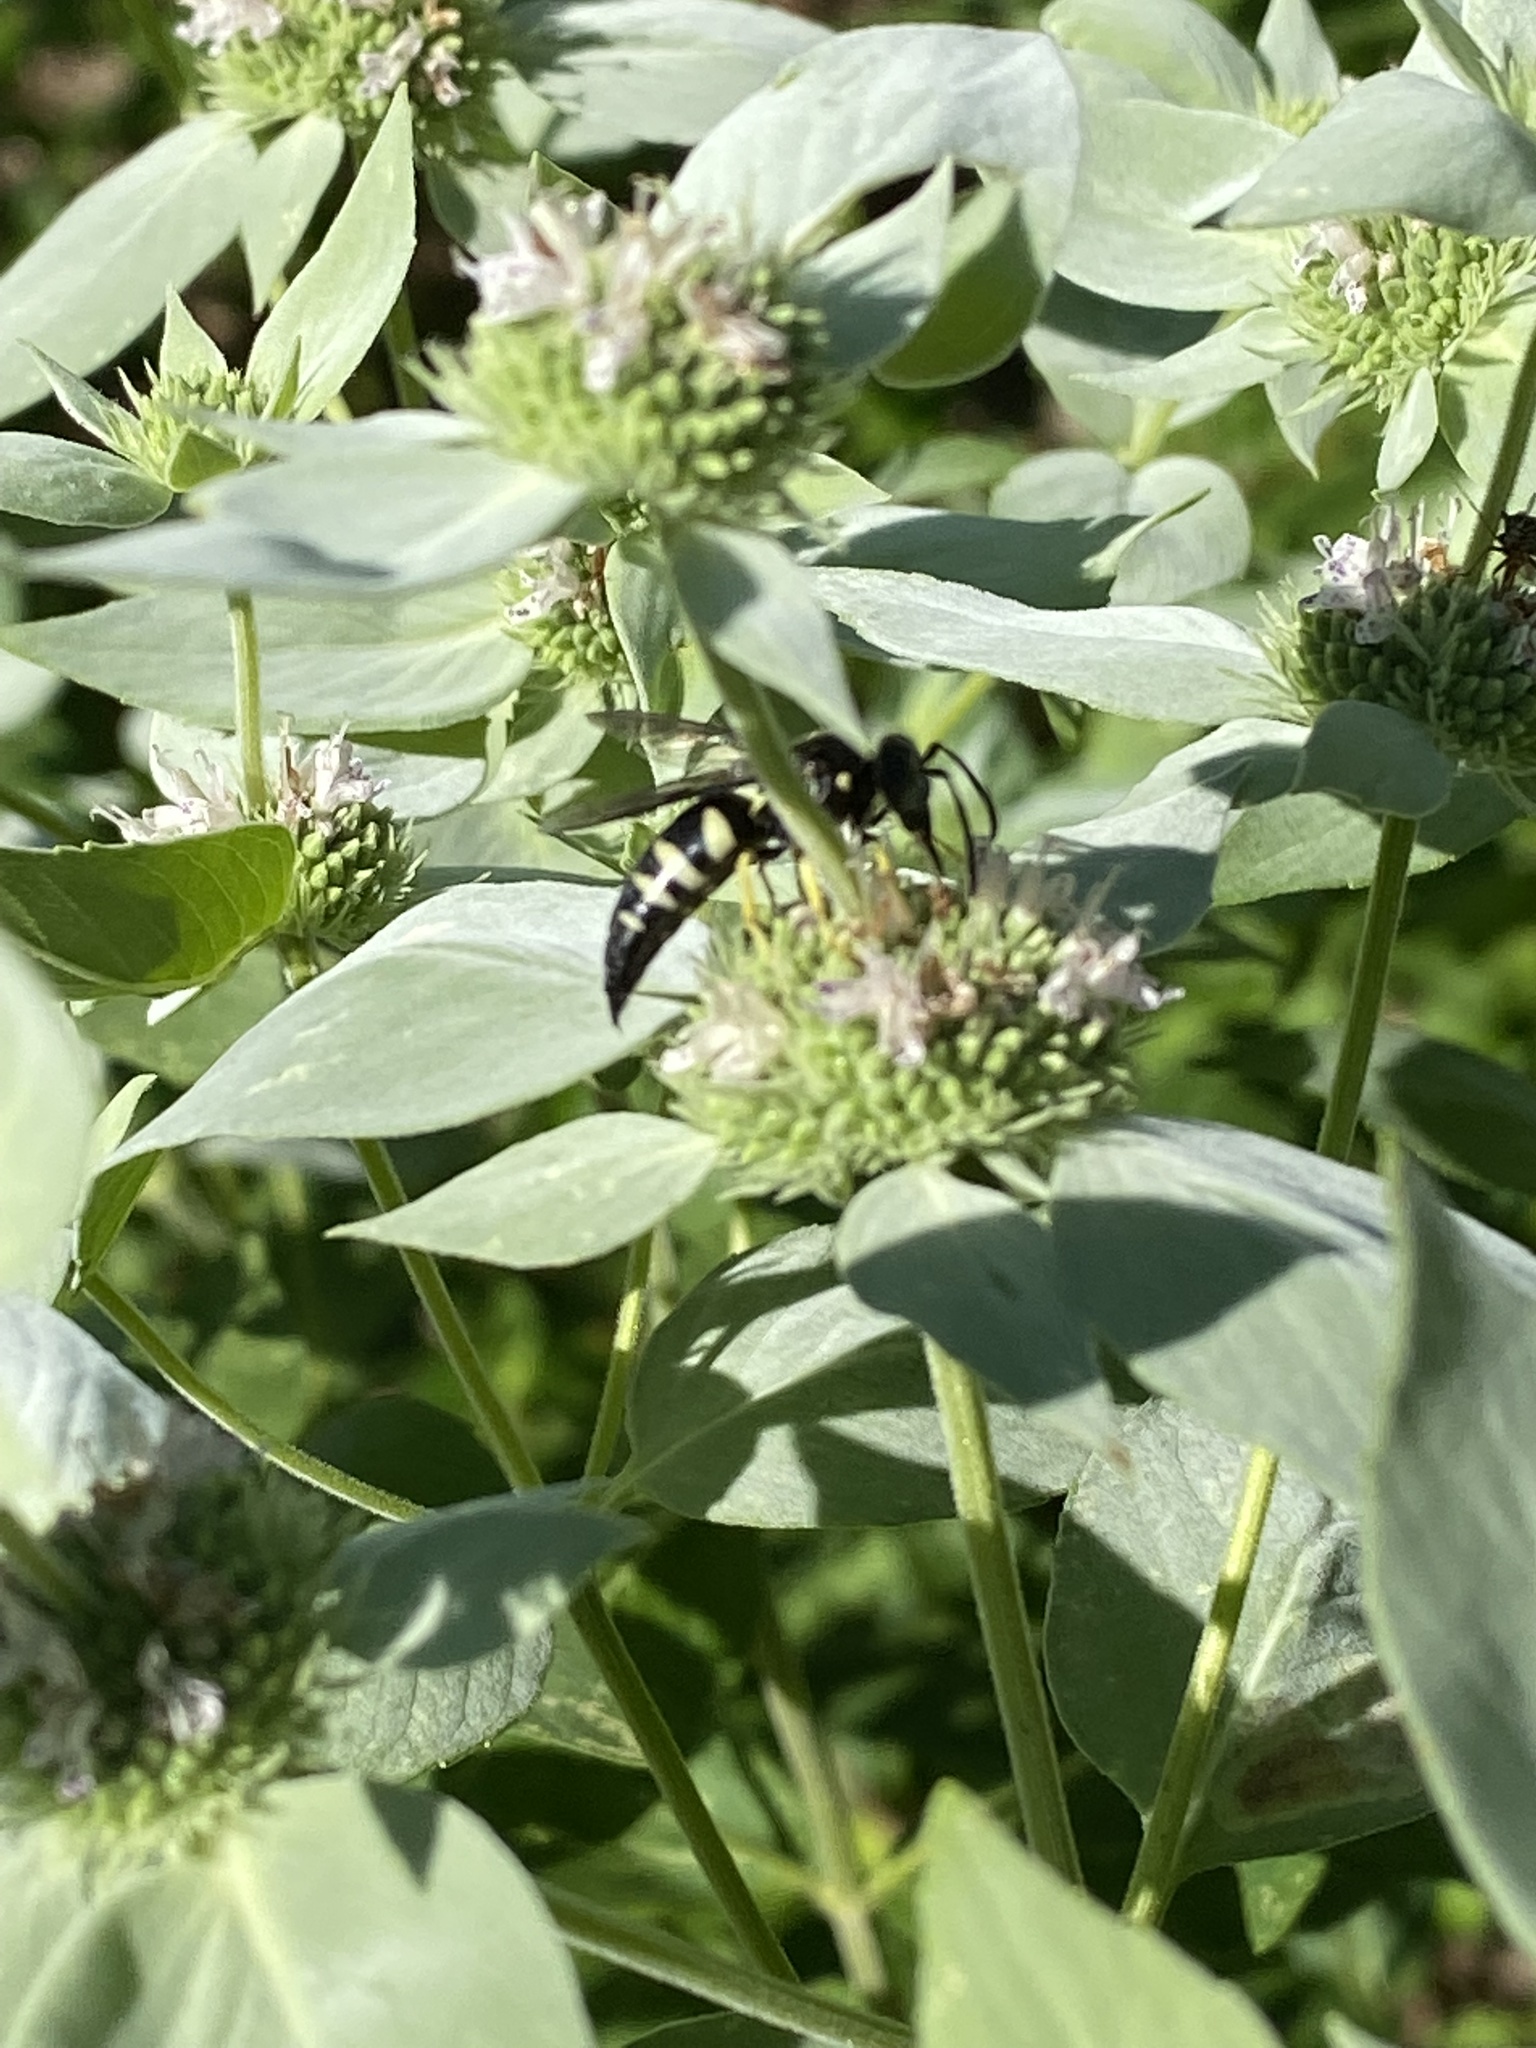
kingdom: Animalia
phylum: Arthropoda
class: Insecta
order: Hymenoptera
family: Crabronidae
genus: Bicyrtes
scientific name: Bicyrtes quadrifasciatus
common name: Four-banded stink bug hunter wasp
